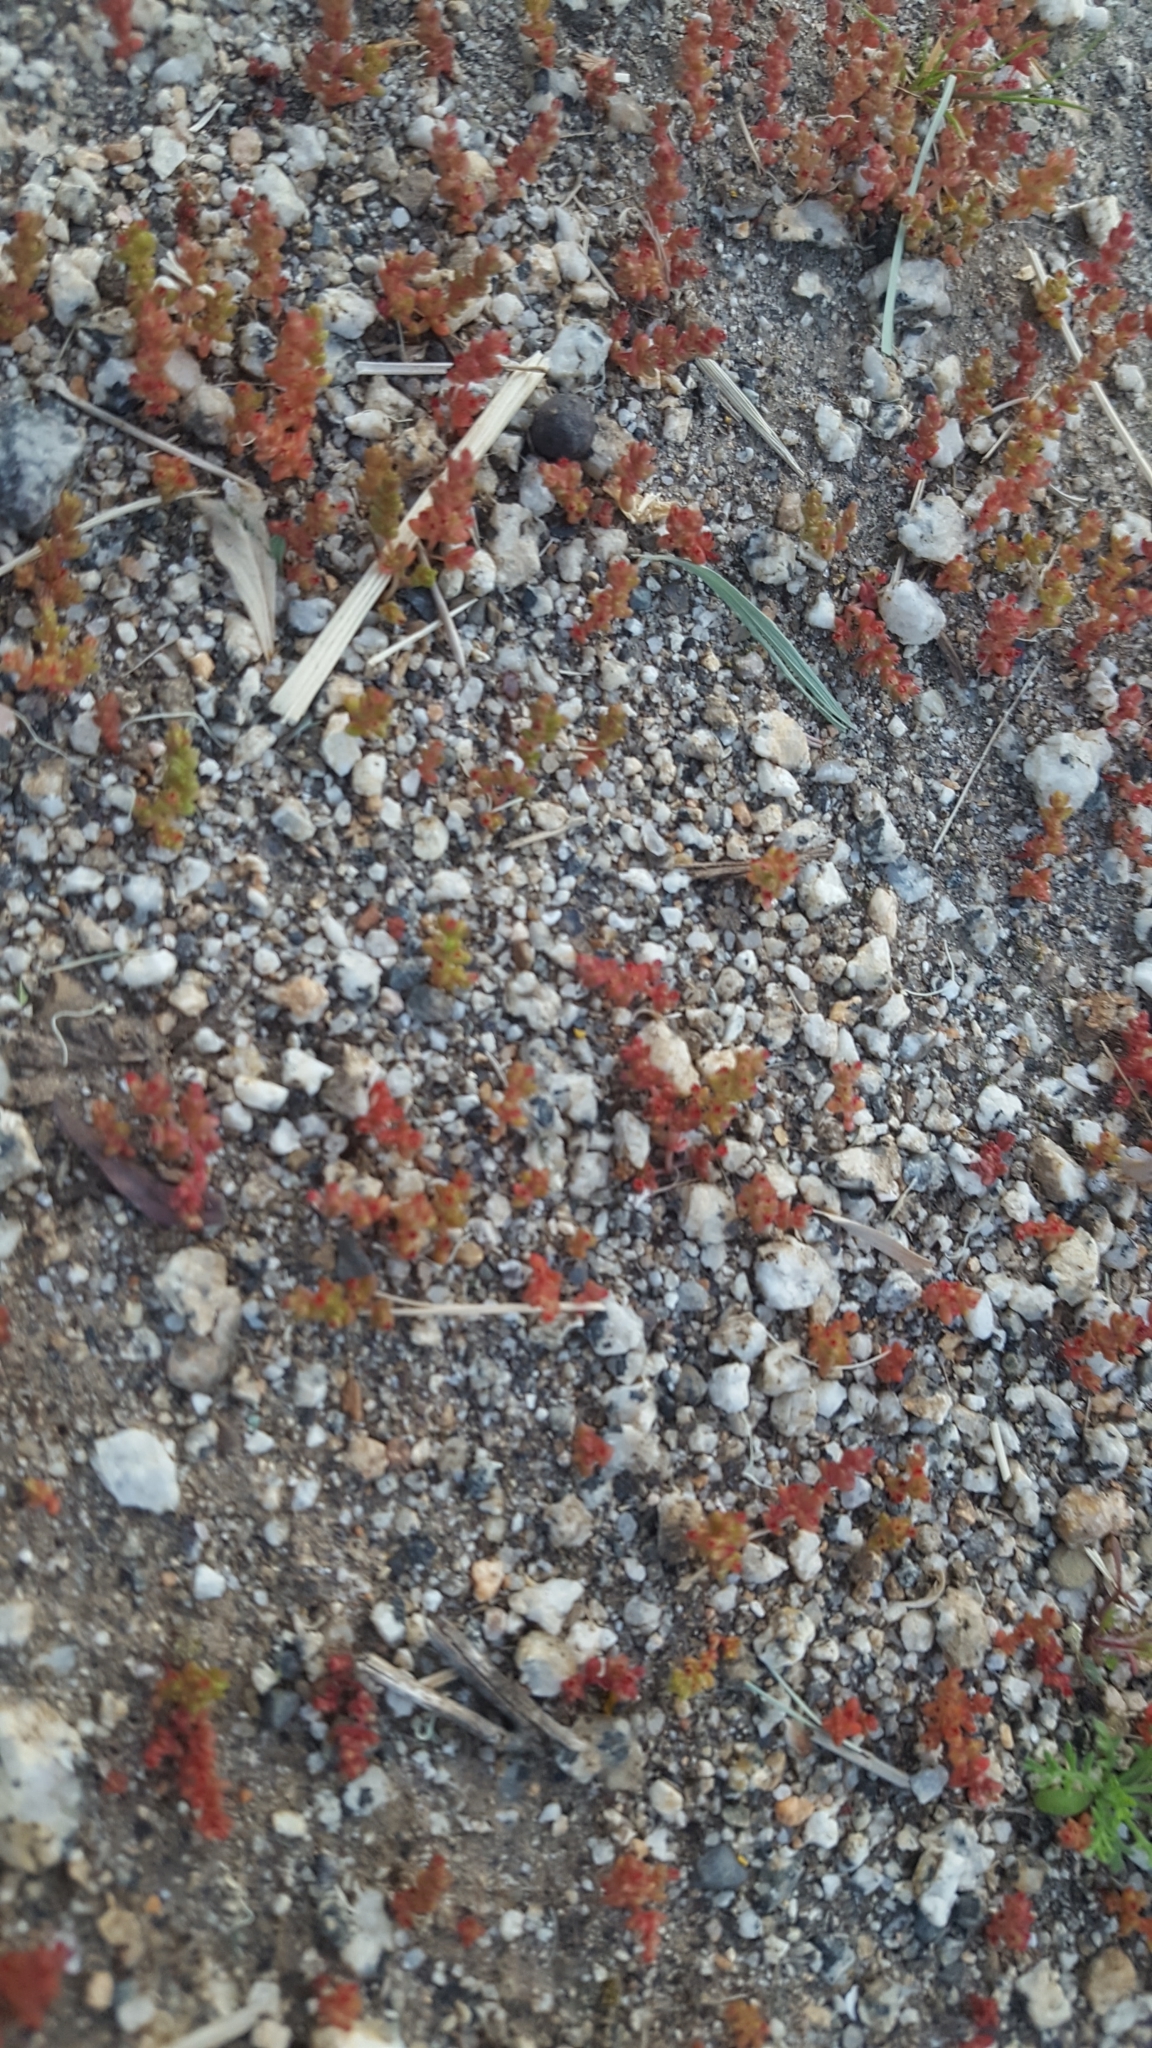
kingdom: Plantae
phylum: Tracheophyta
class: Magnoliopsida
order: Saxifragales
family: Crassulaceae
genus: Crassula
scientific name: Crassula connata
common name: Erect pygmyweed
